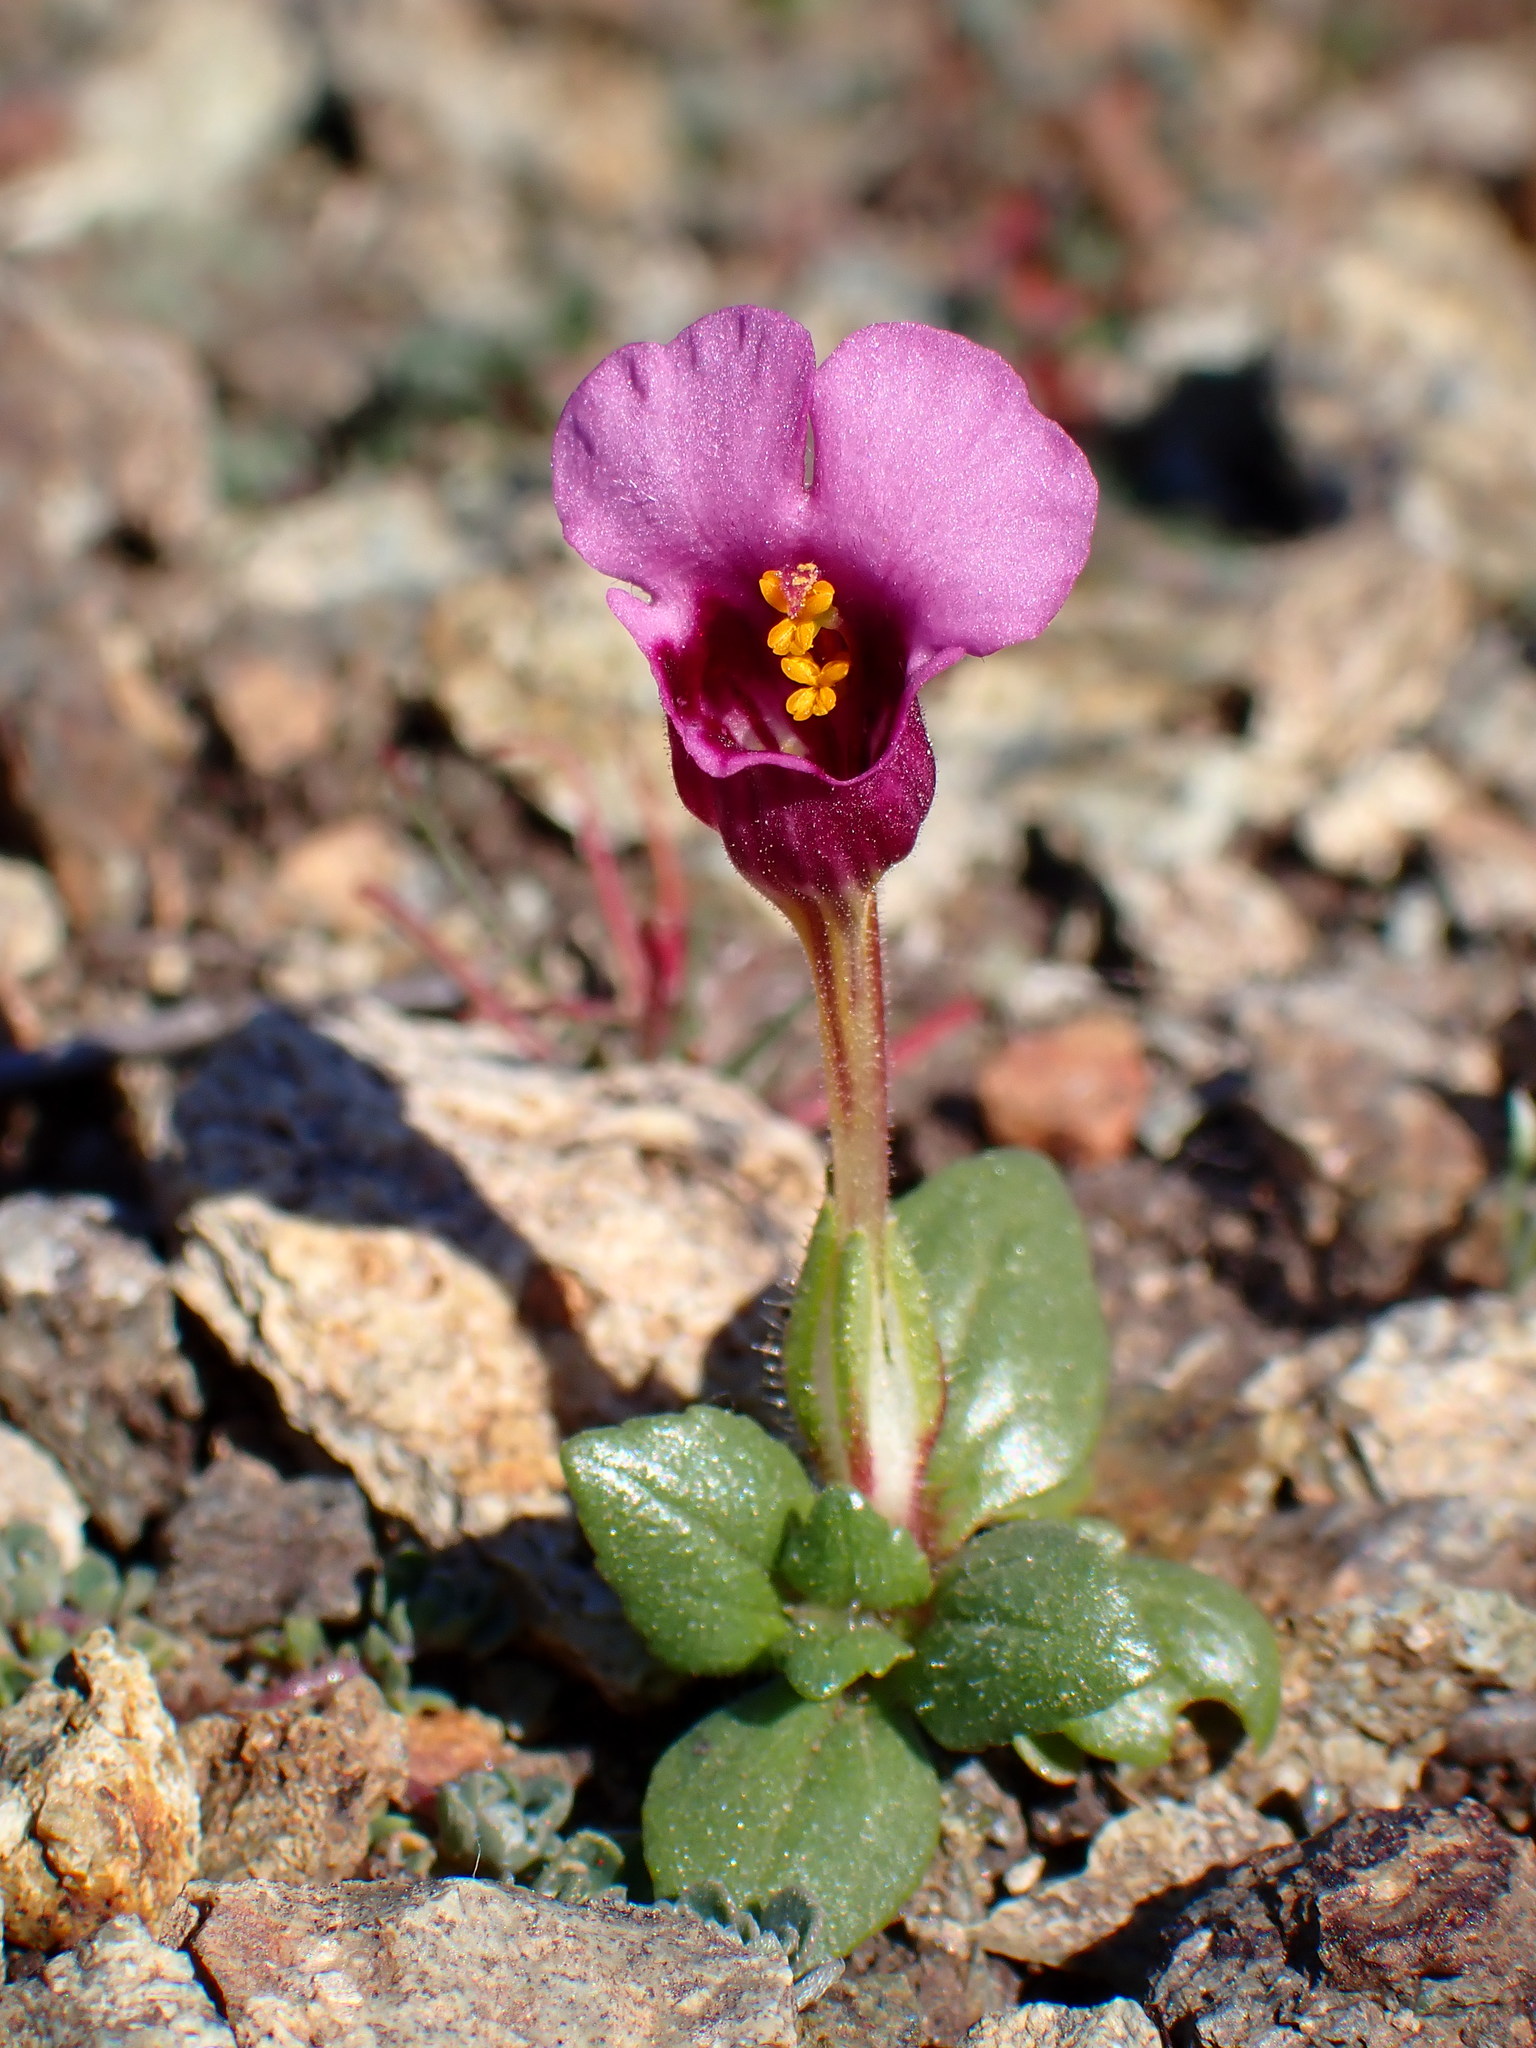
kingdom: Plantae
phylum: Tracheophyta
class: Magnoliopsida
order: Lamiales
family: Phrymaceae
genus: Diplacus
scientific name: Diplacus douglasii
